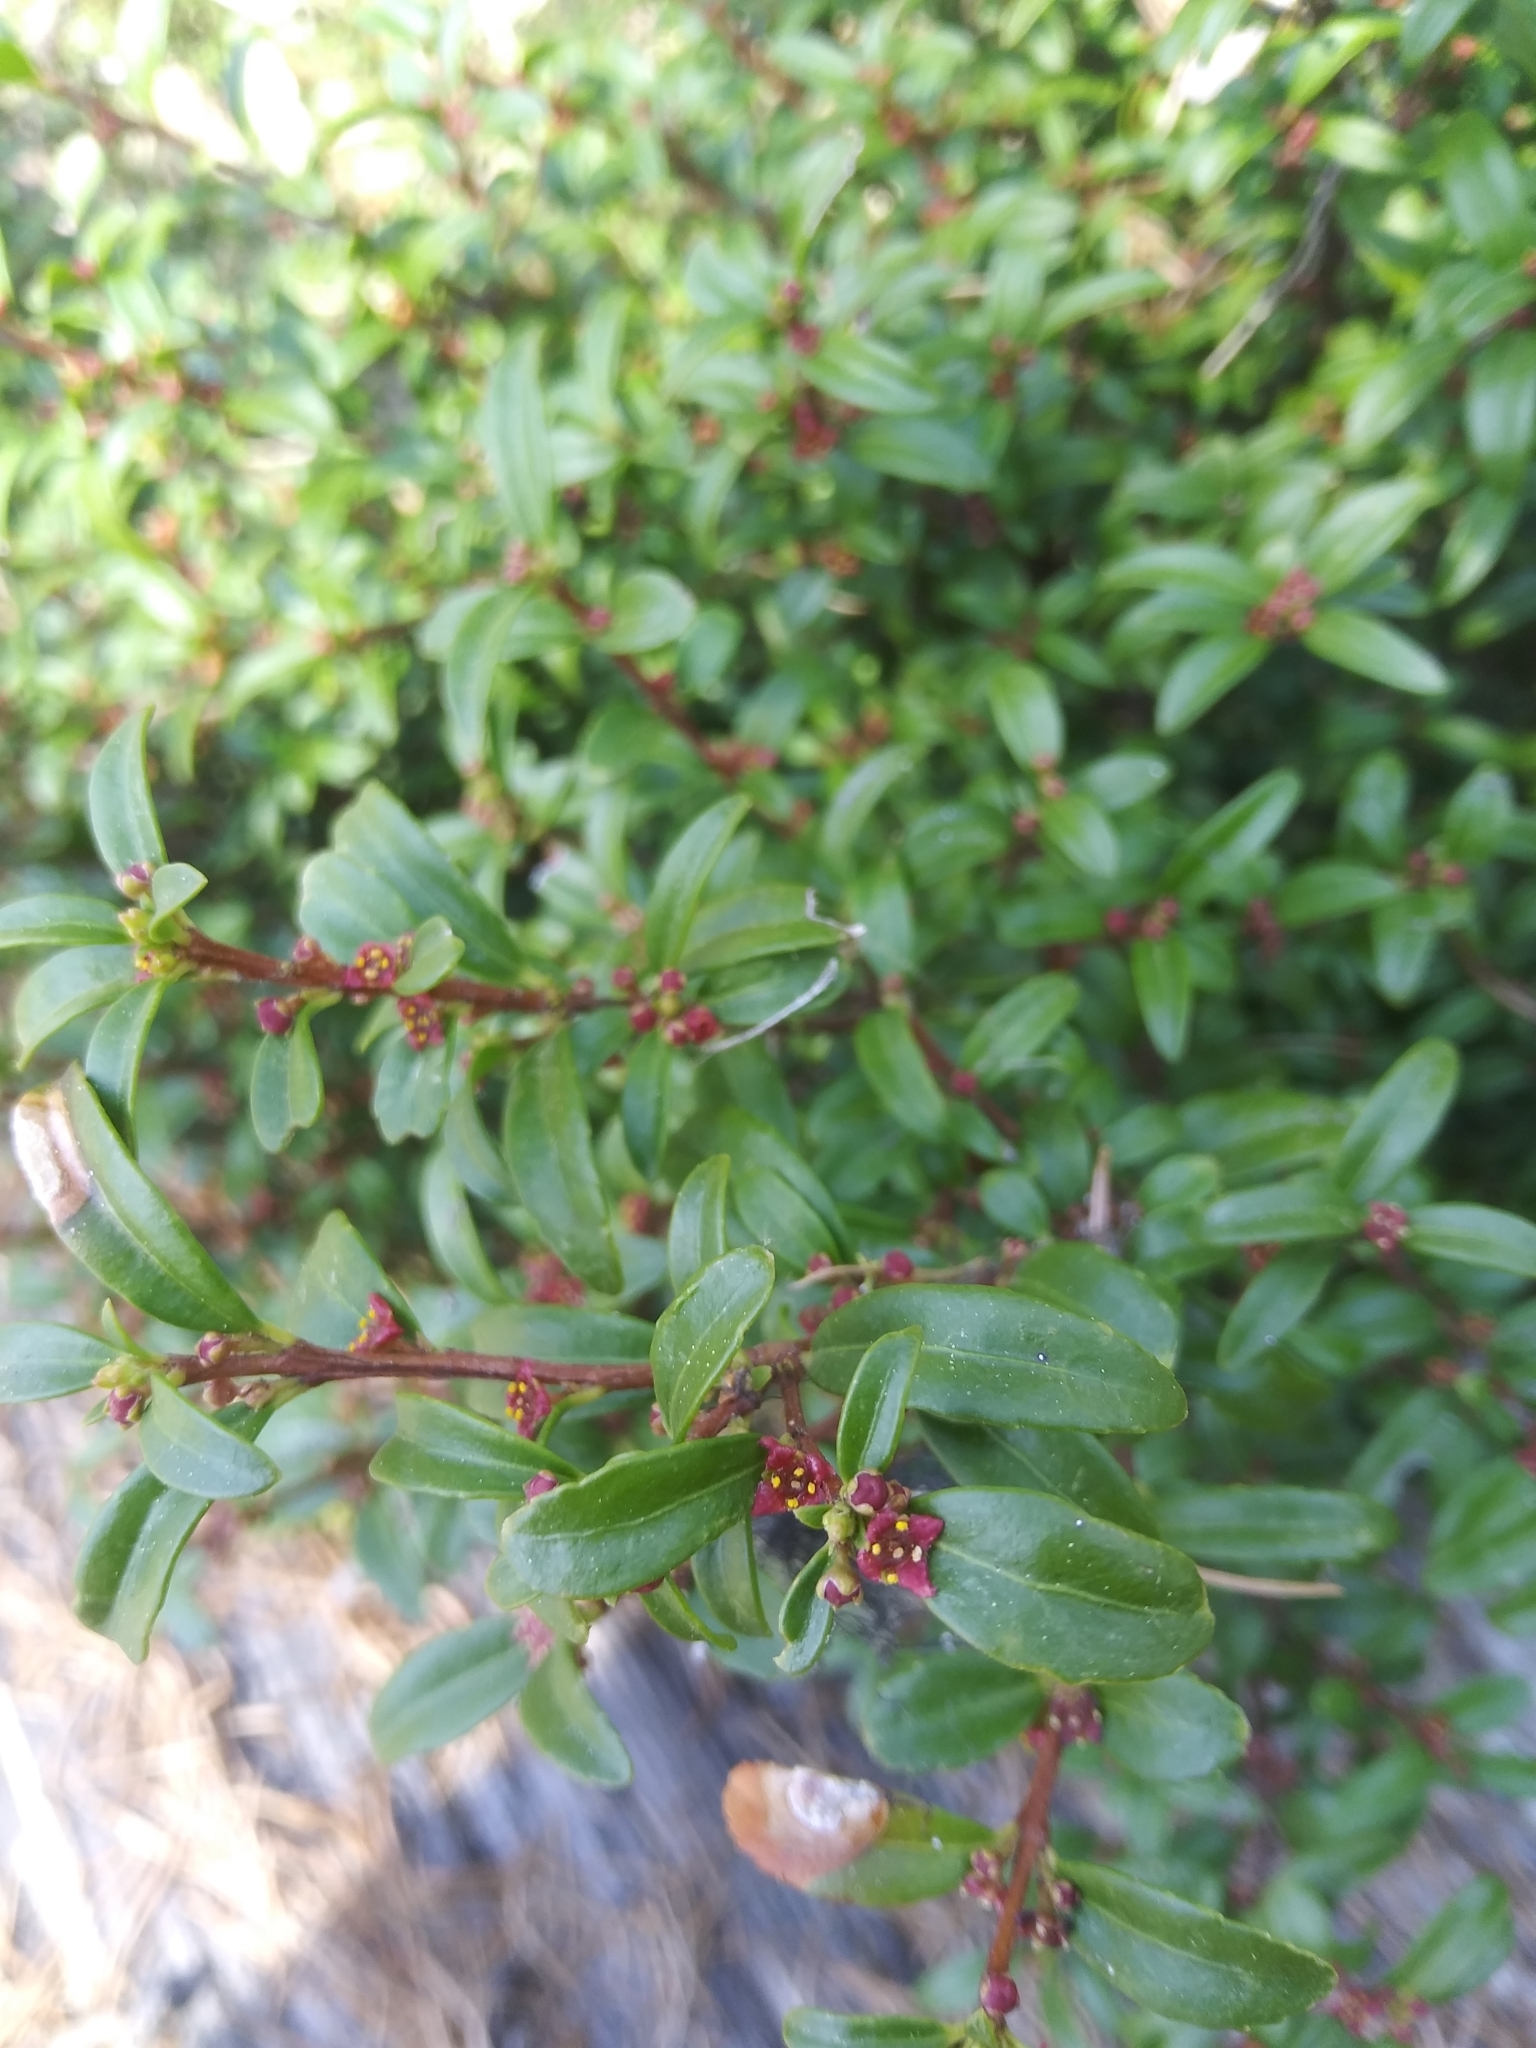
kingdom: Plantae
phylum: Tracheophyta
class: Magnoliopsida
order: Celastrales
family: Celastraceae
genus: Paxistima
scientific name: Paxistima myrsinites
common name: Mountain-lover
